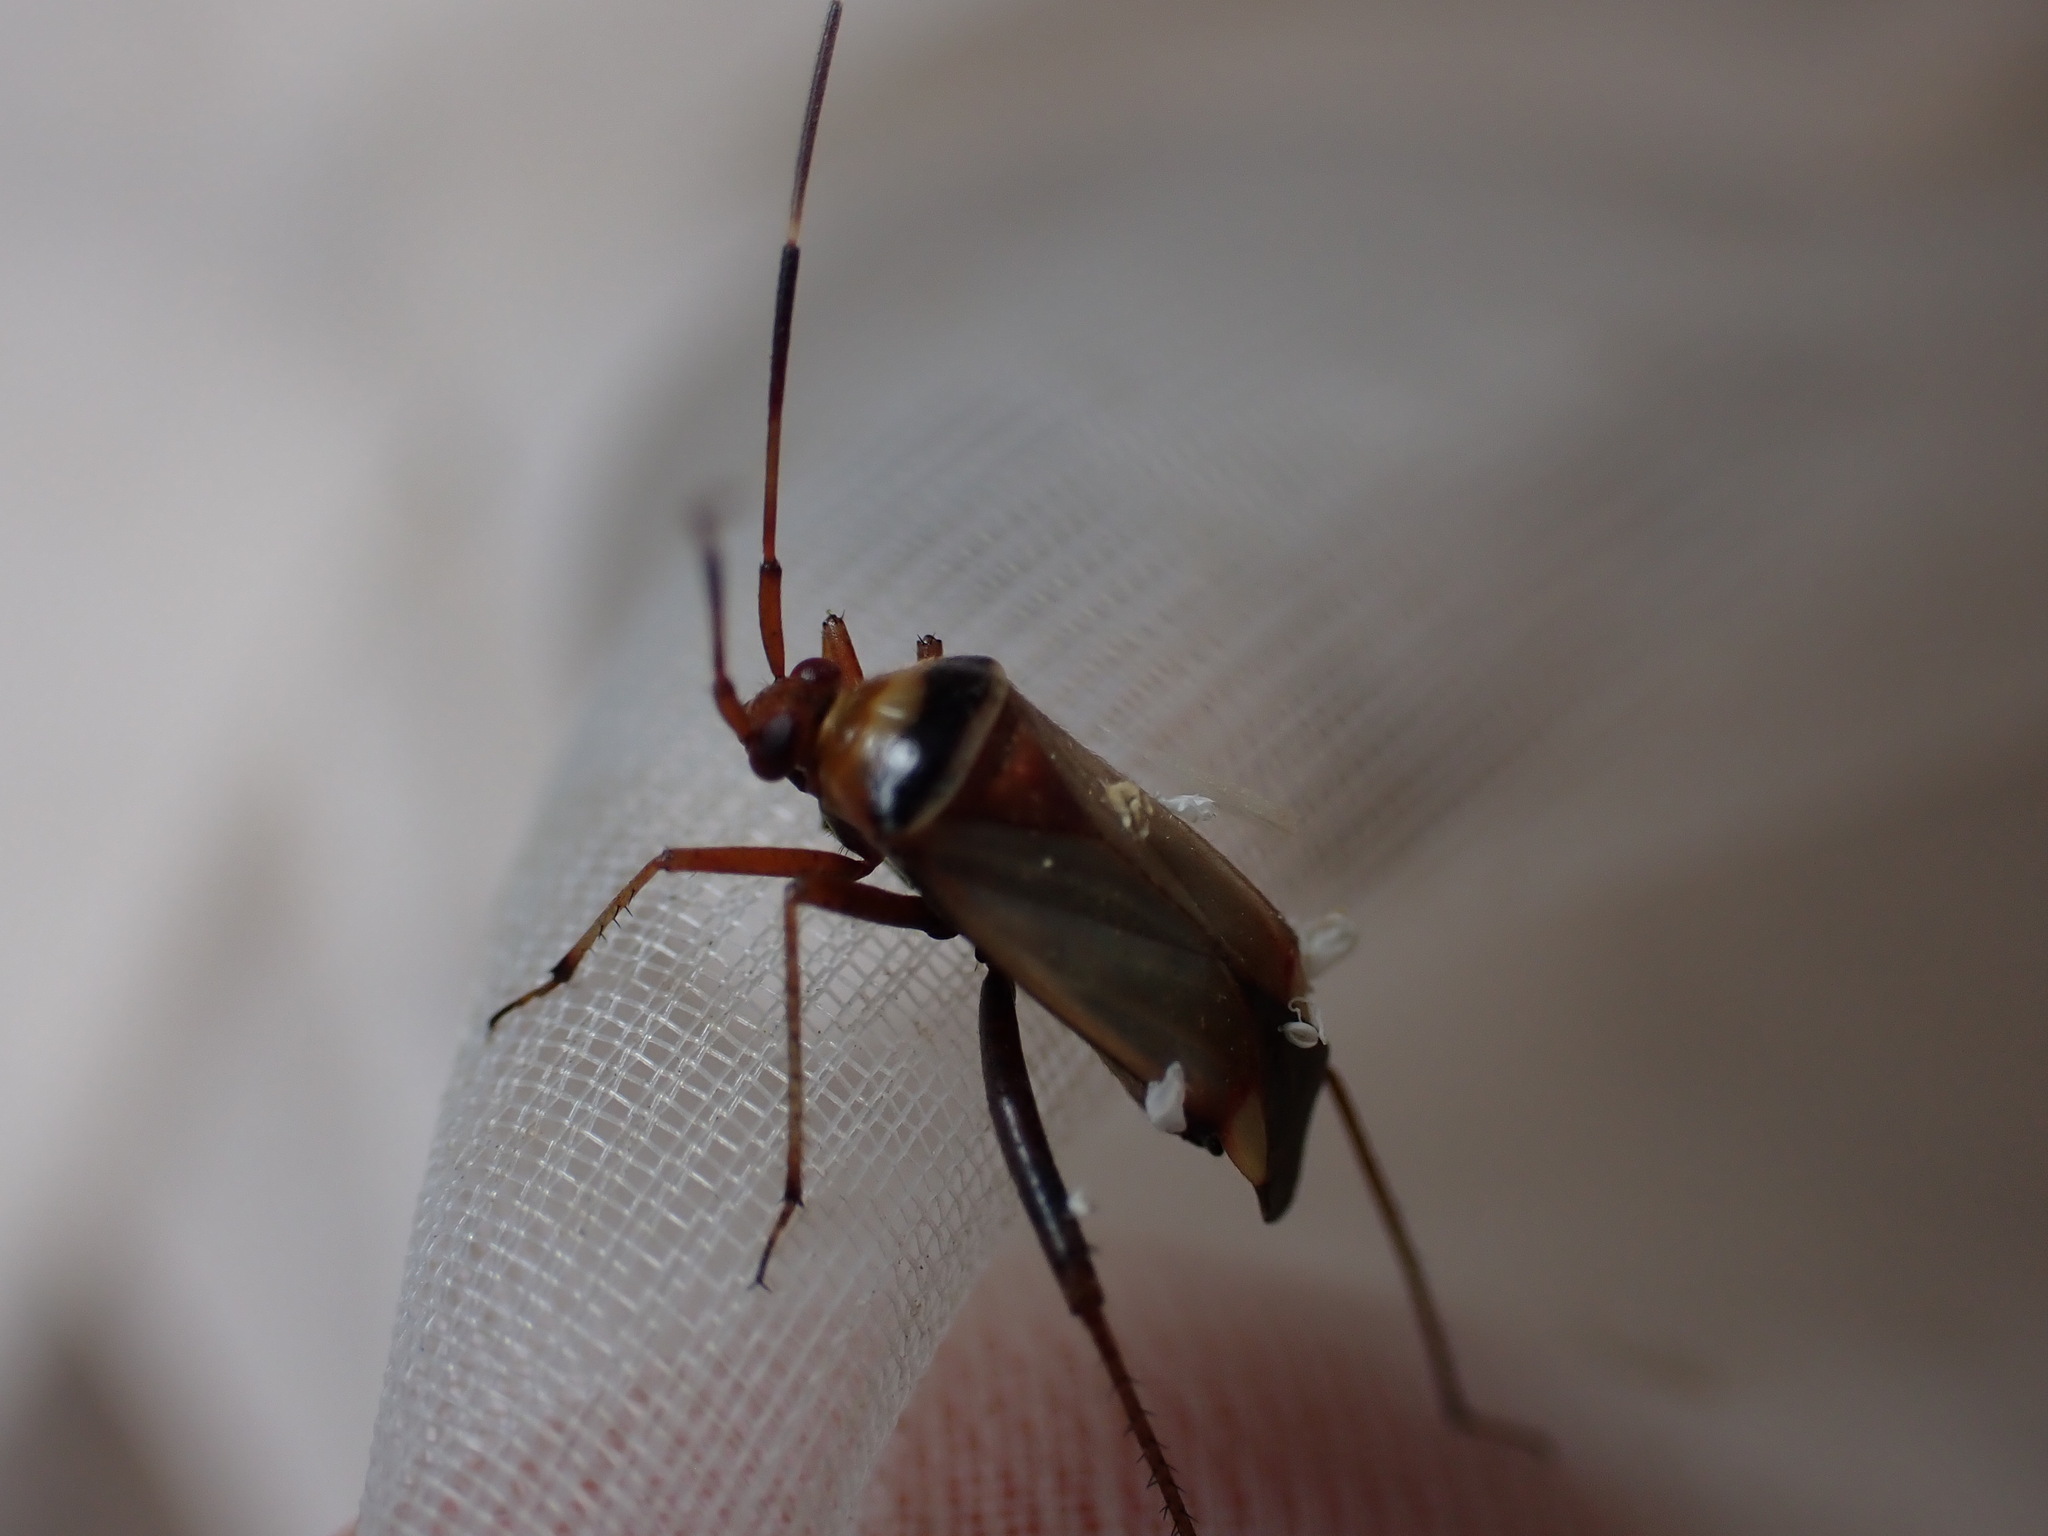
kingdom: Animalia
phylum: Arthropoda
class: Insecta
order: Hemiptera
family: Miridae
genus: Adelphocoris
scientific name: Adelphocoris vandalicus
